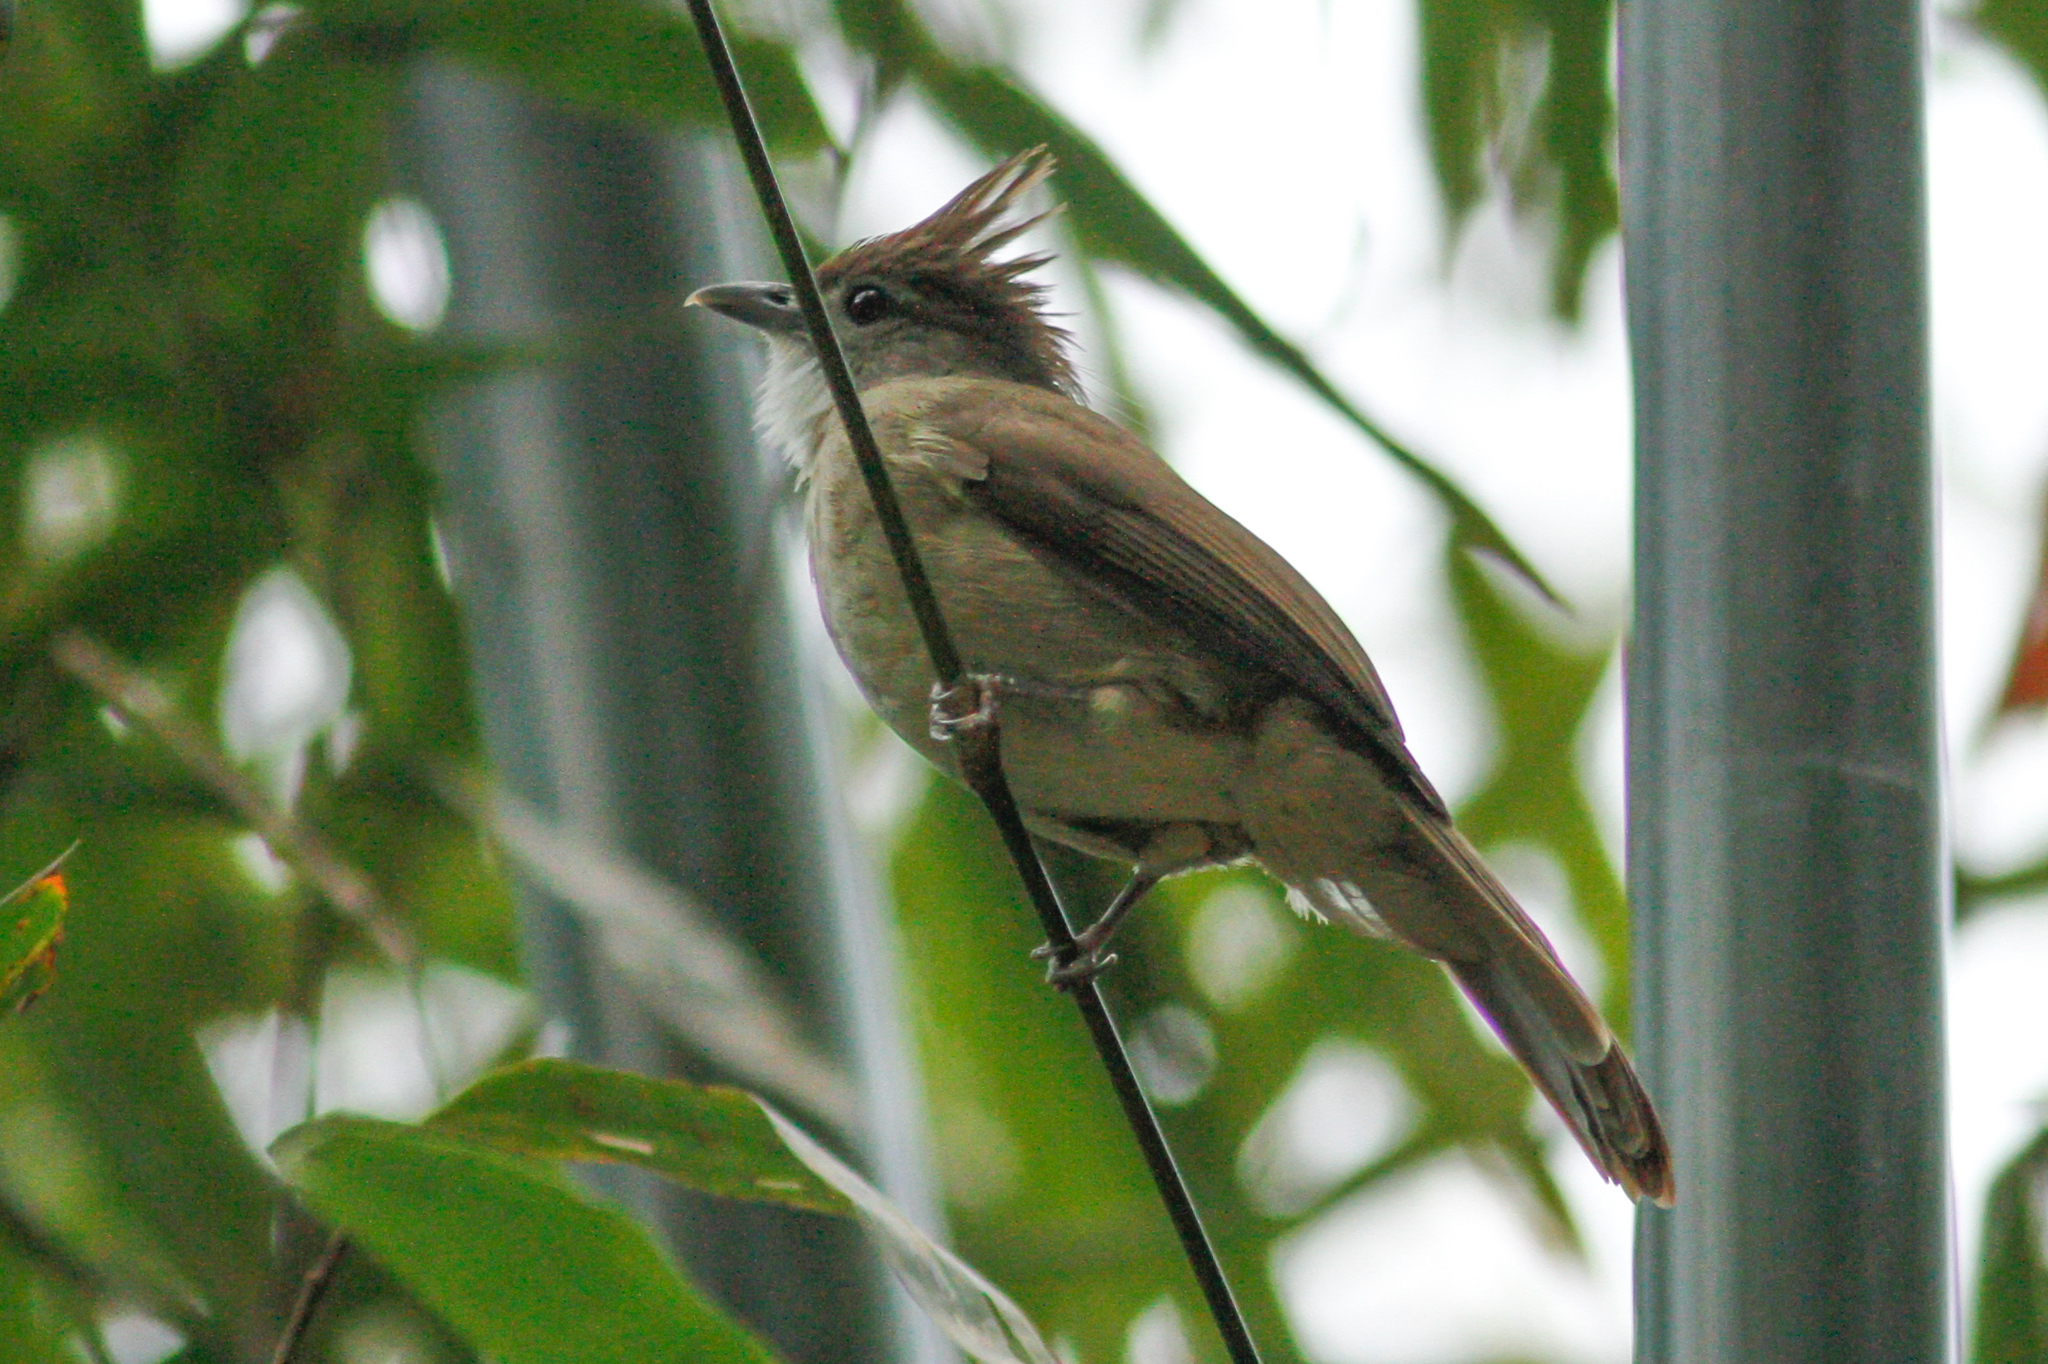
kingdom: Animalia
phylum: Chordata
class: Aves
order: Passeriformes
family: Pycnonotidae
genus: Alophoixus
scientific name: Alophoixus ochraceus
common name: Ochraceous bulbul
